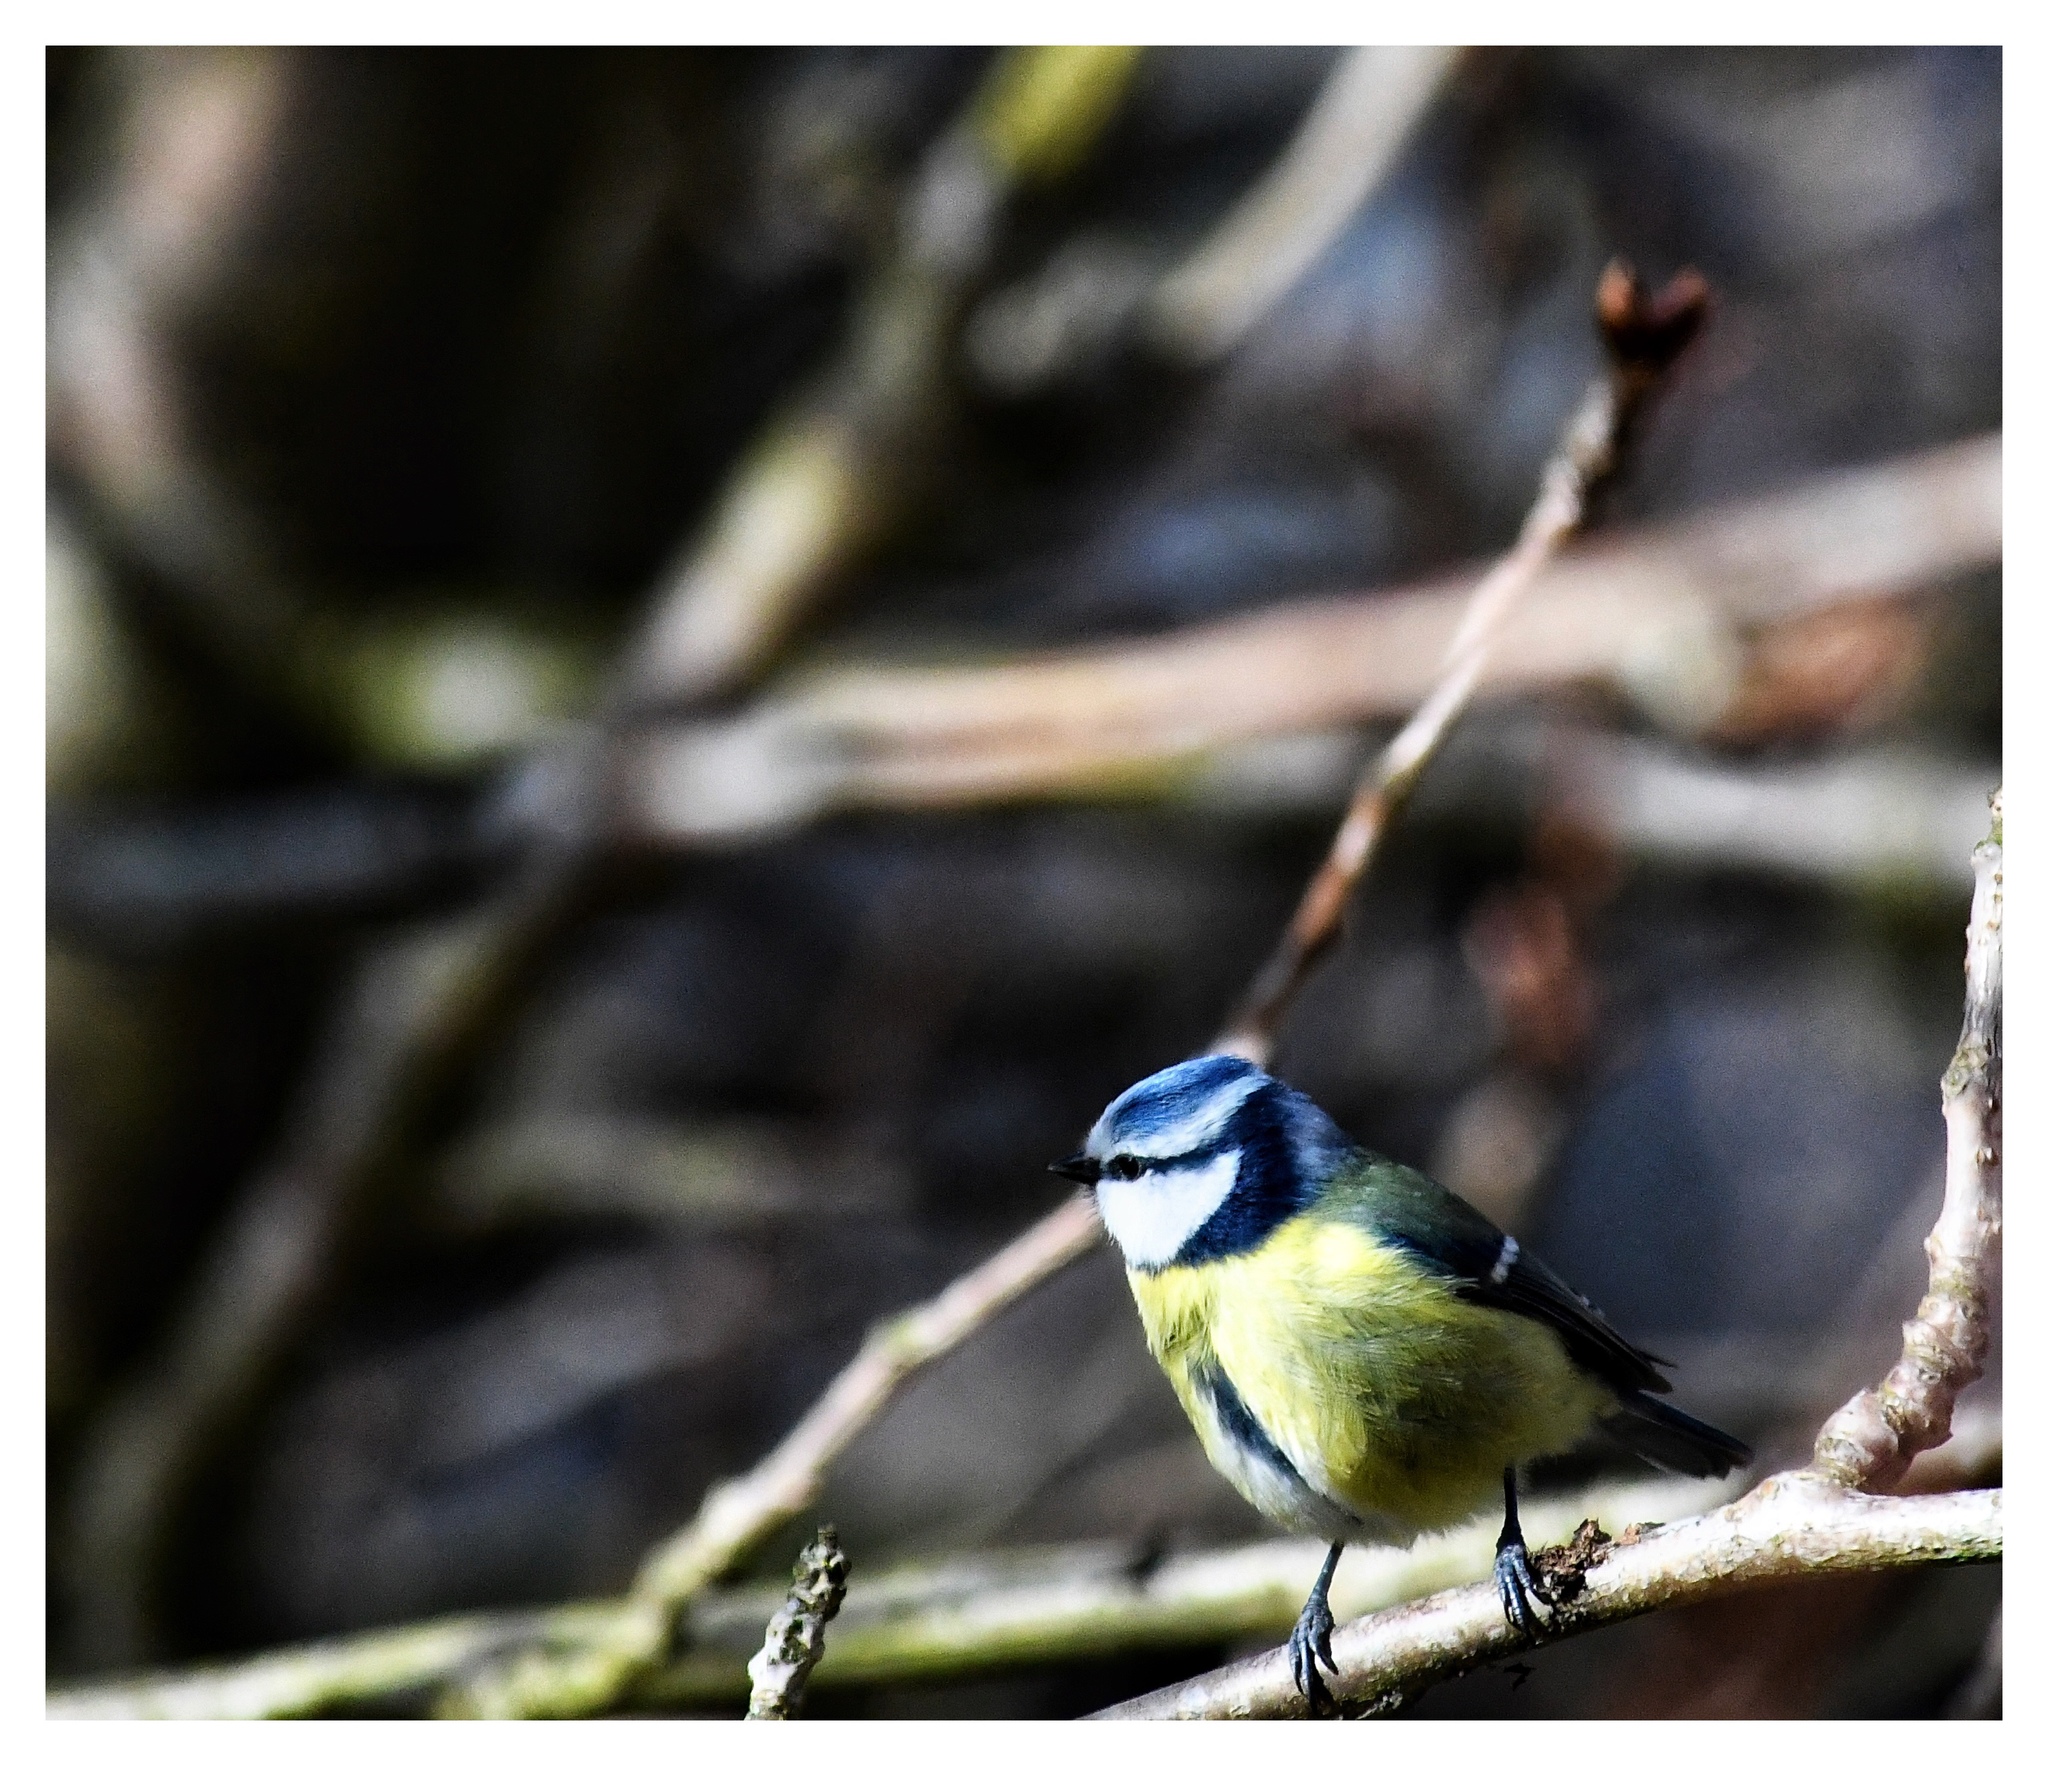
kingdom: Animalia
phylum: Chordata
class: Aves
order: Passeriformes
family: Paridae
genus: Cyanistes
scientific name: Cyanistes caeruleus
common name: Eurasian blue tit
